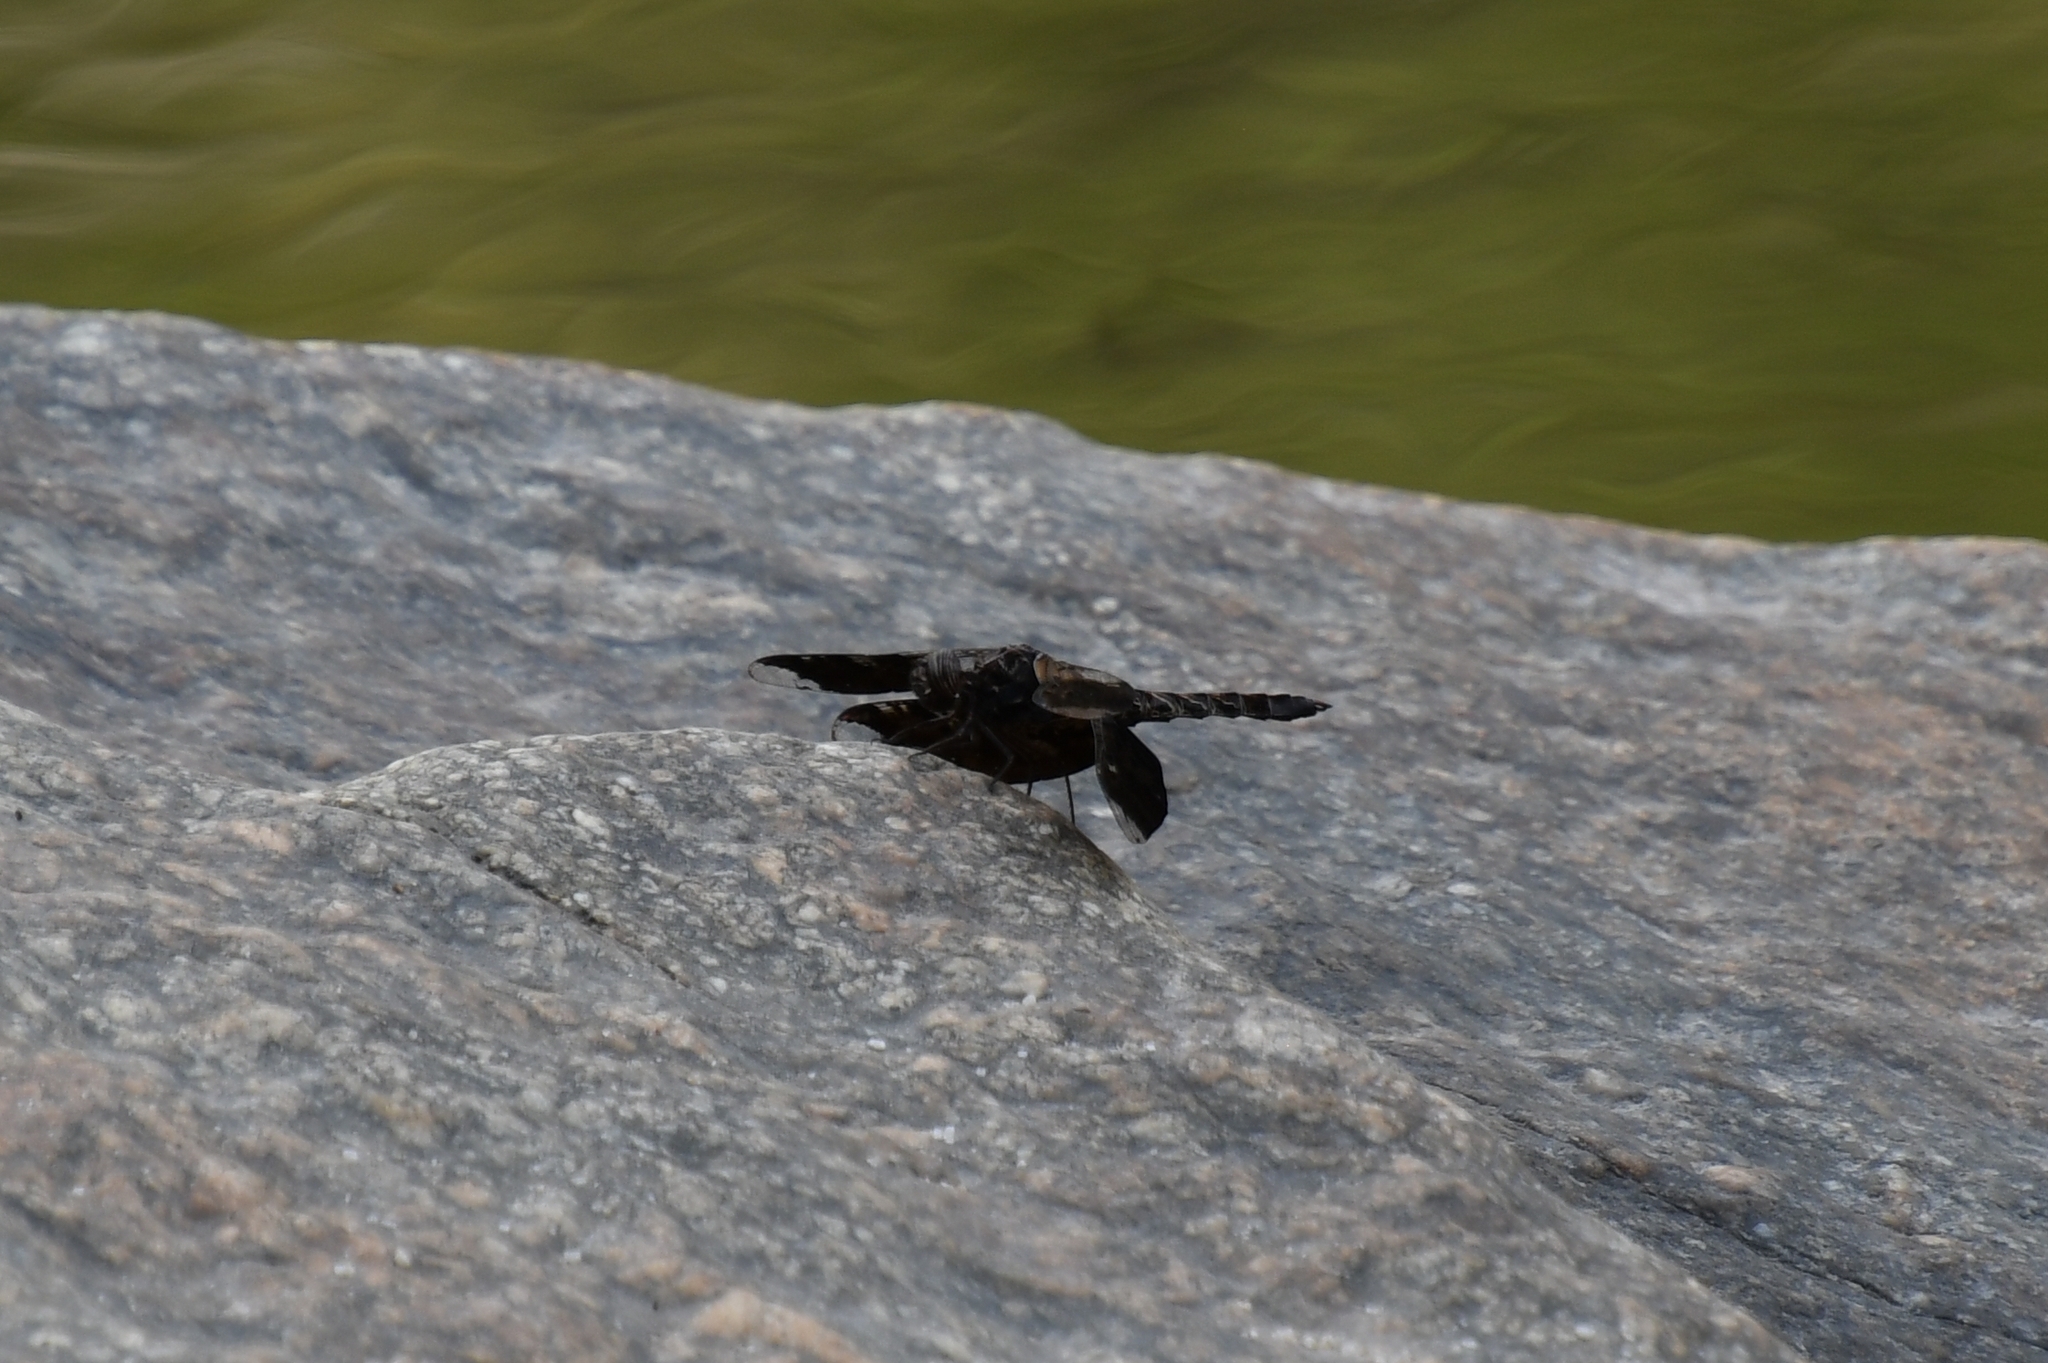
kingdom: Animalia
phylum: Arthropoda
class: Insecta
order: Odonata
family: Libellulidae
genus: Pseudoleon
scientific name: Pseudoleon superbus
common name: Filigree skimmer
